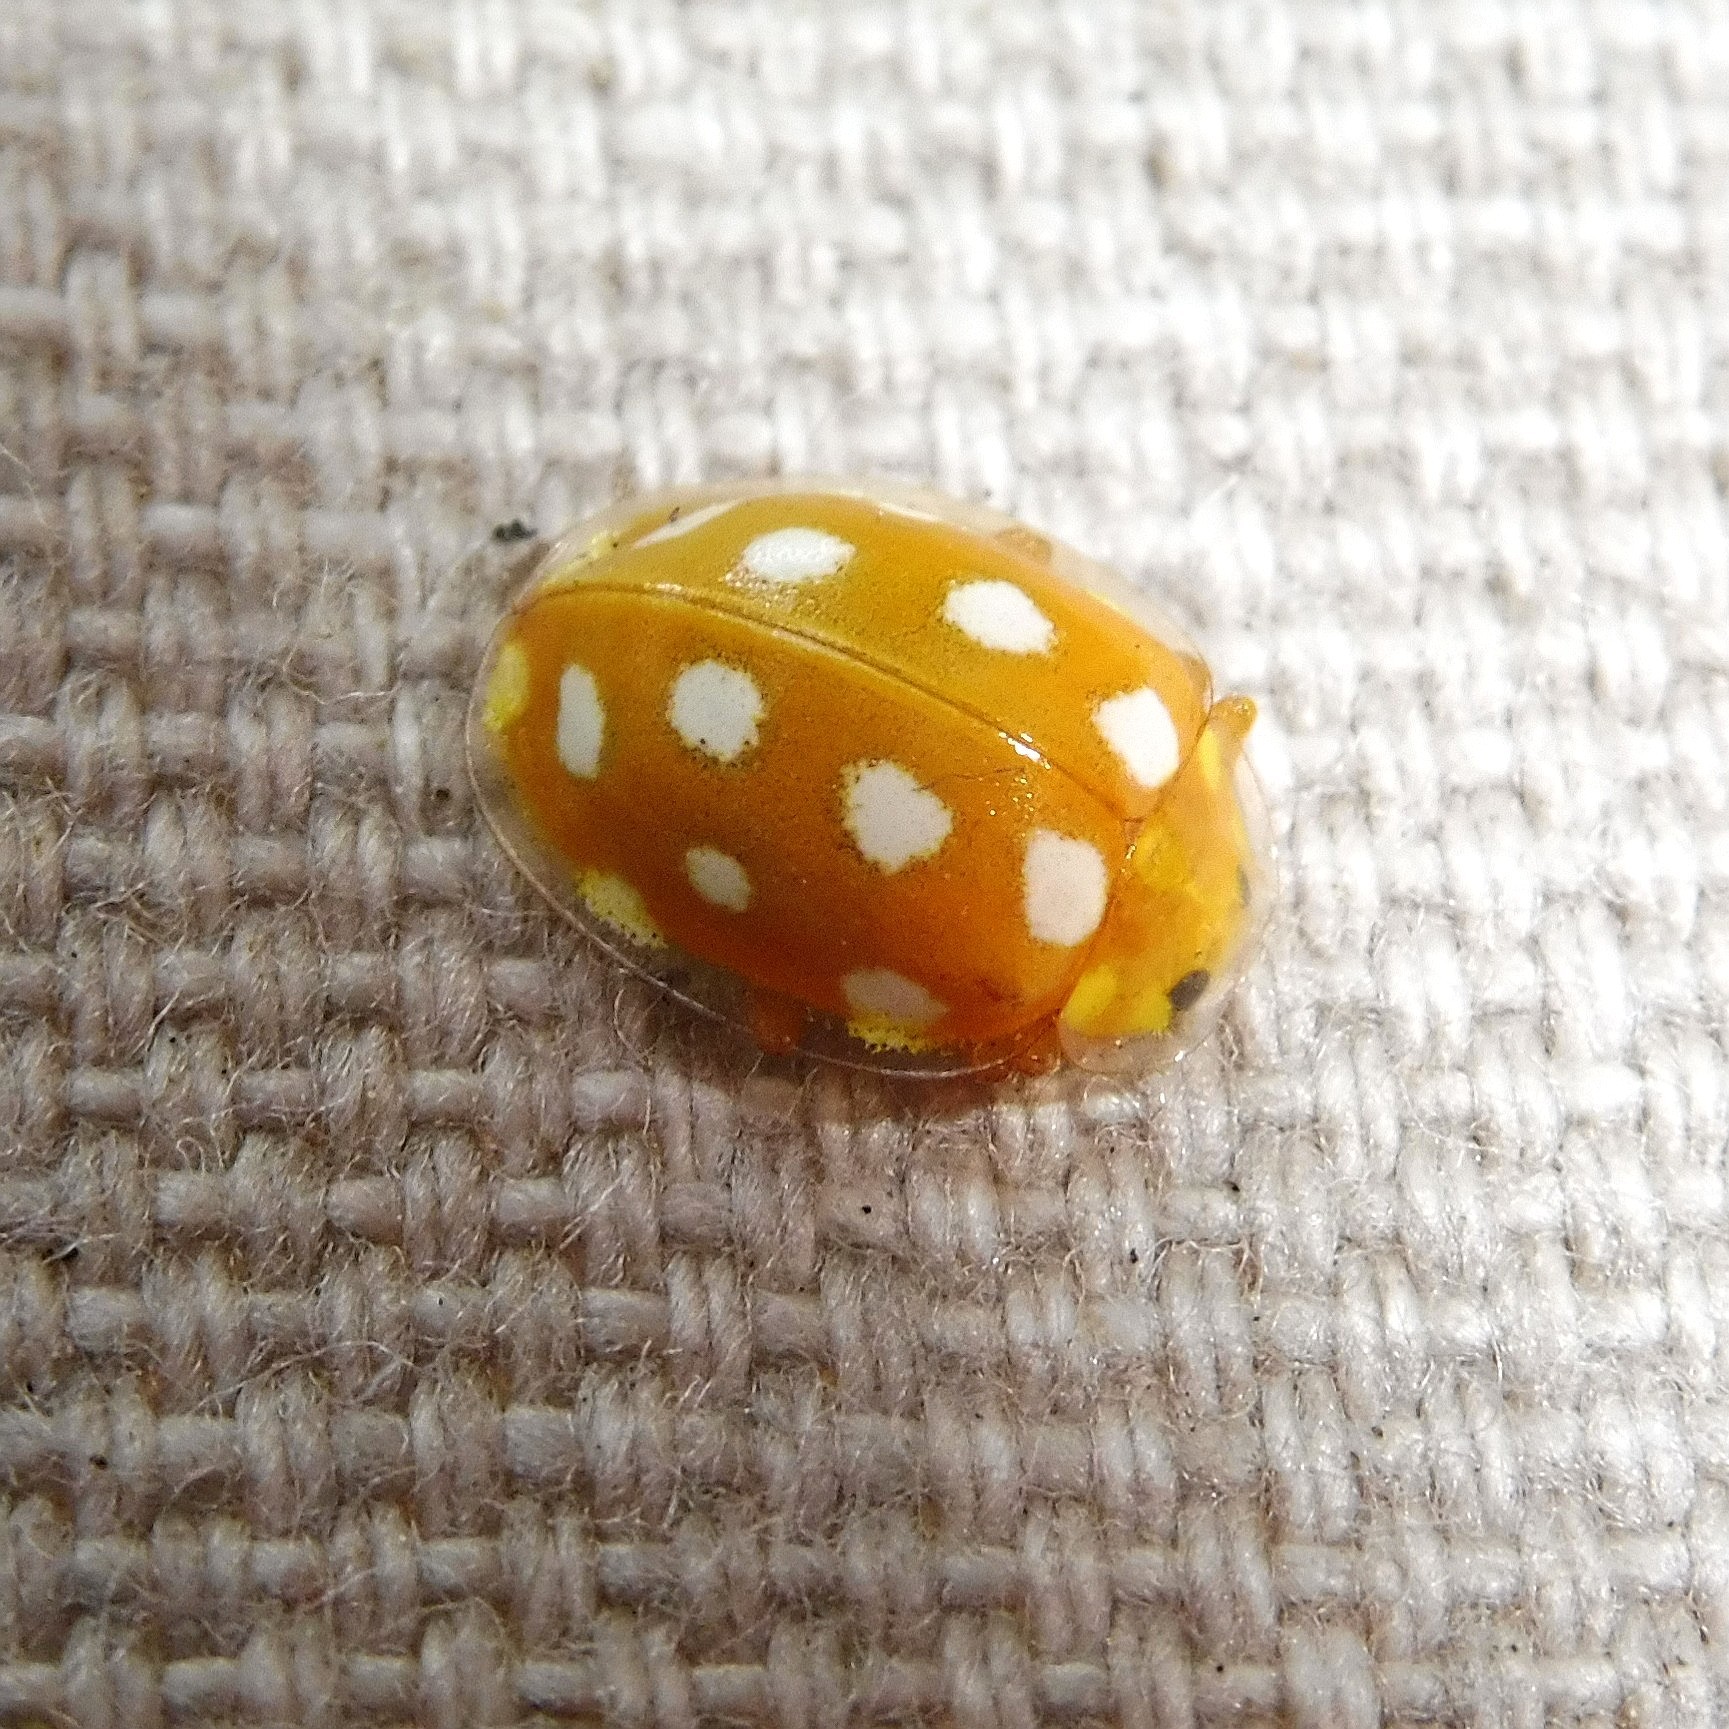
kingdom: Animalia
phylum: Arthropoda
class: Insecta
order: Coleoptera
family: Coccinellidae
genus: Halyzia
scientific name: Halyzia sedecimguttata
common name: Orange ladybird
